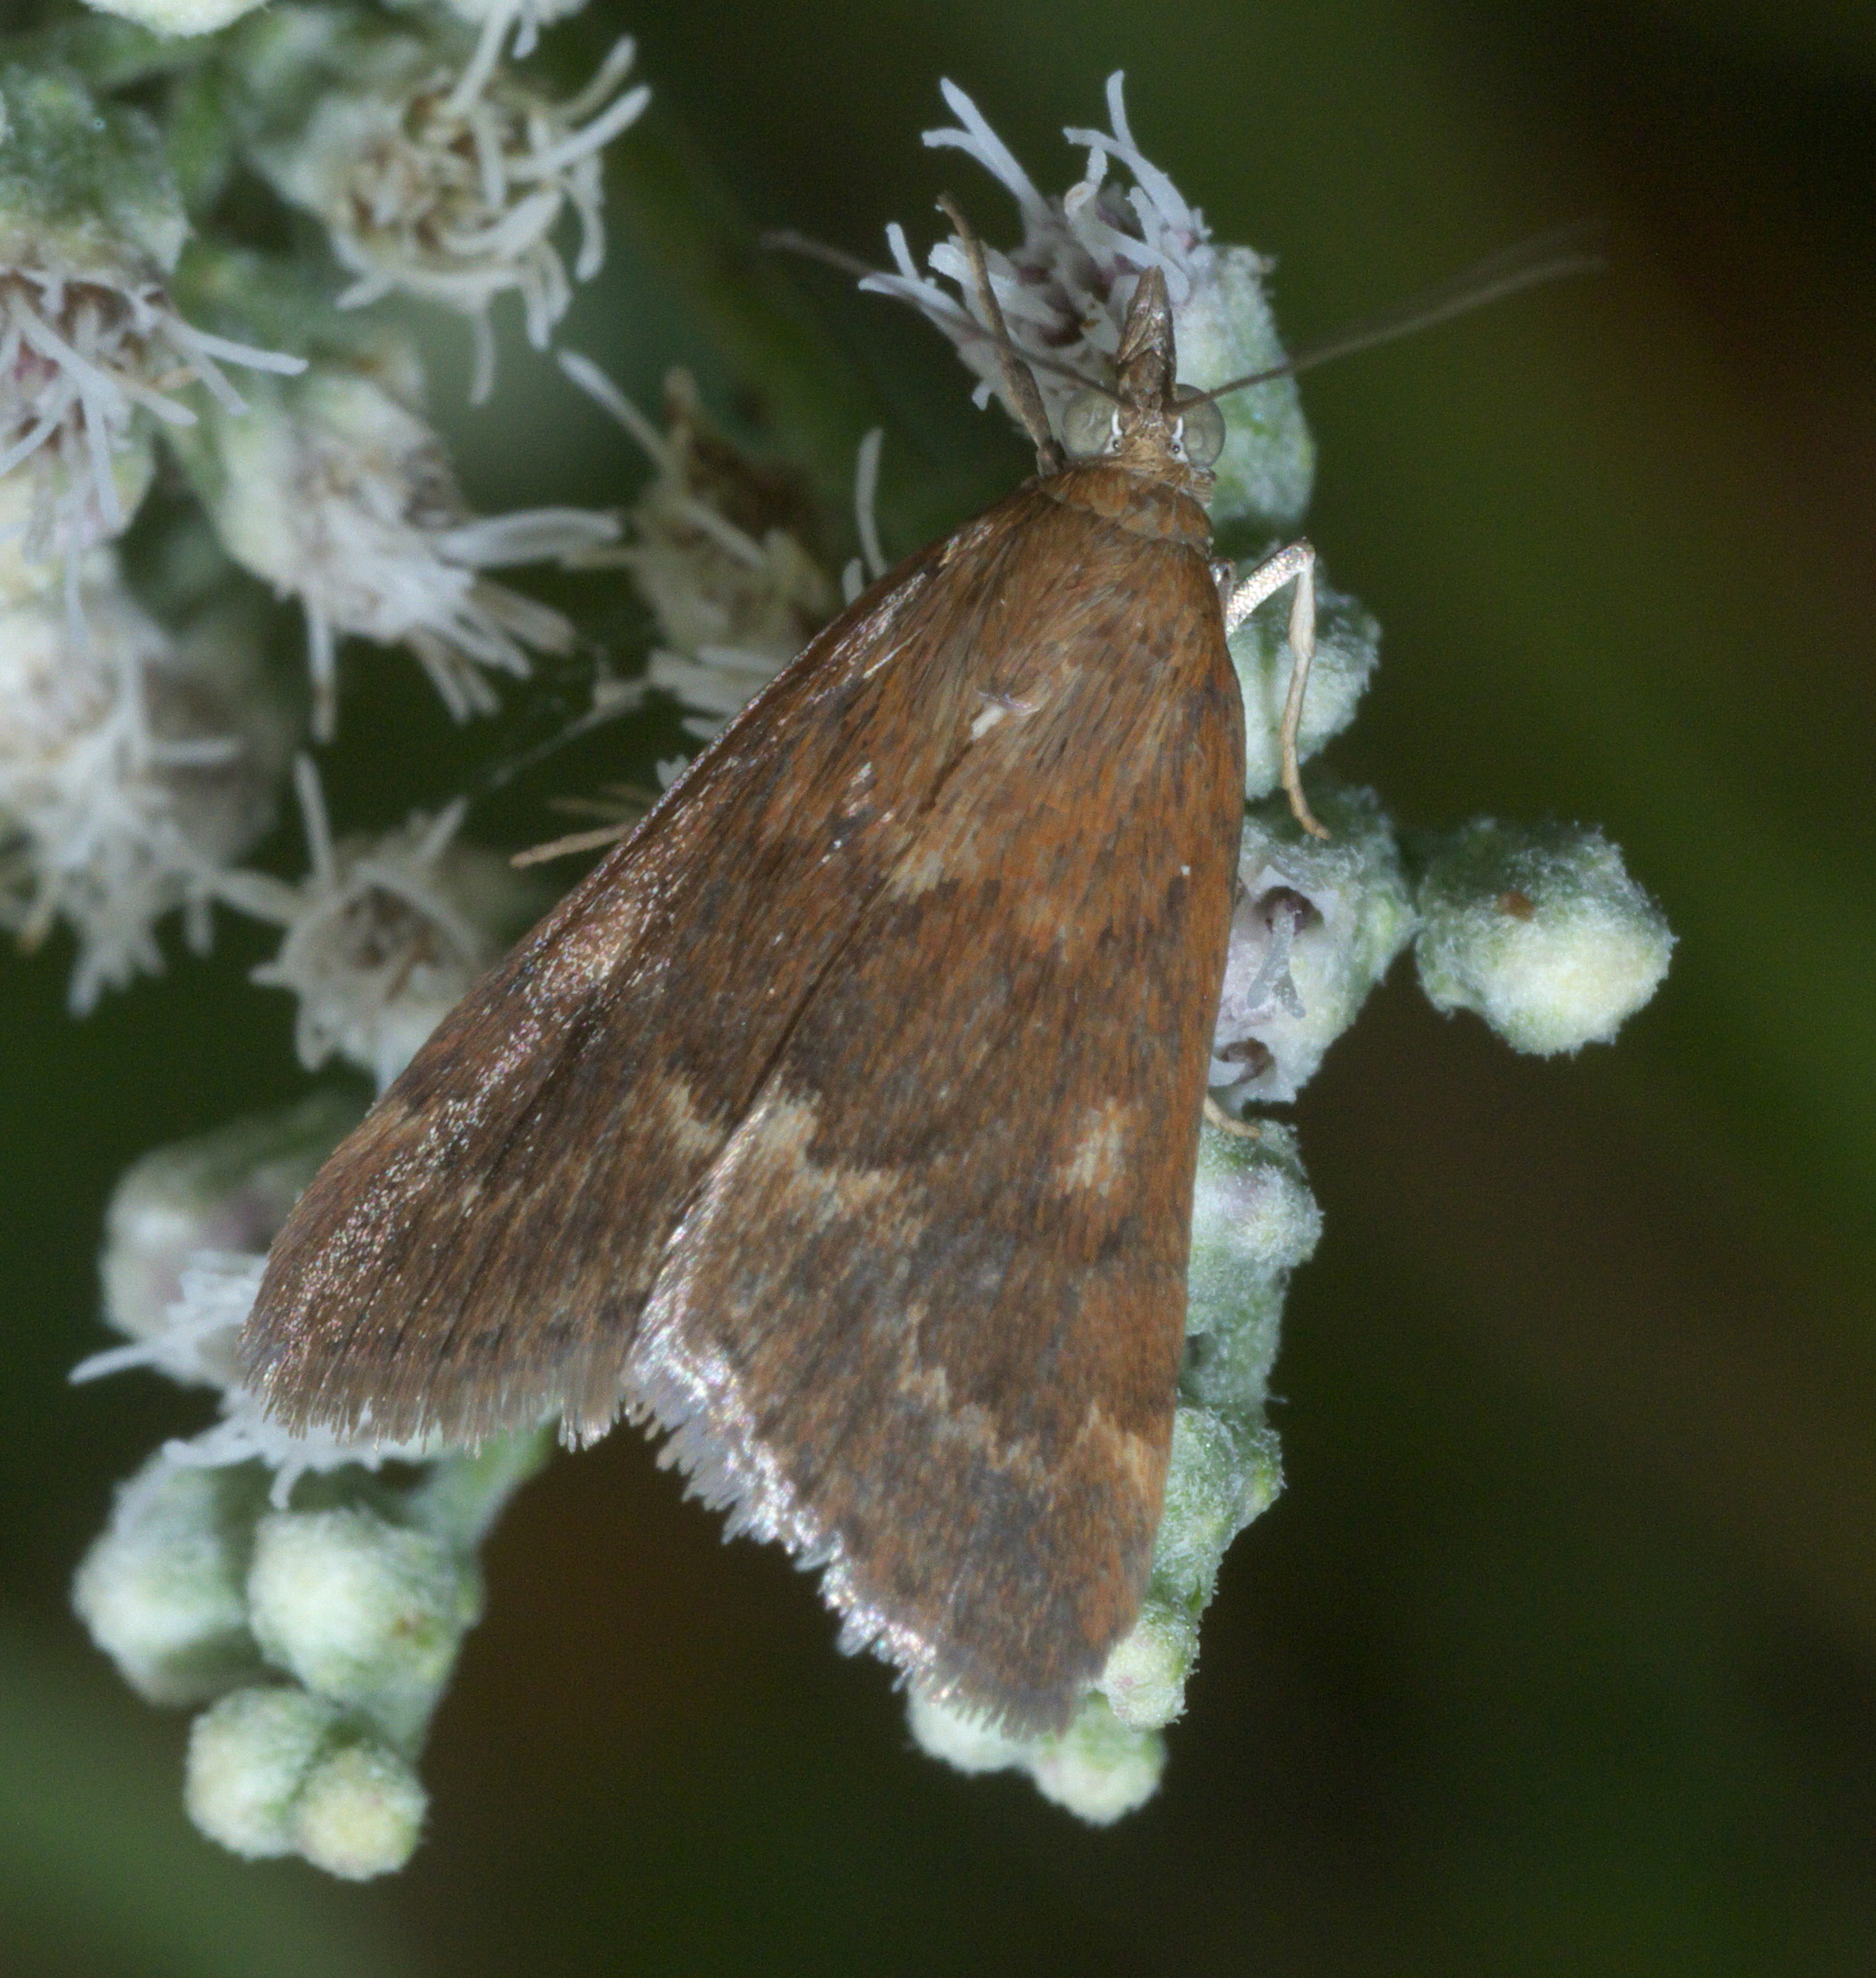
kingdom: Animalia
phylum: Arthropoda
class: Insecta
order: Lepidoptera
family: Crambidae
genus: Achyra
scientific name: Achyra rantalis
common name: Garden webworm
